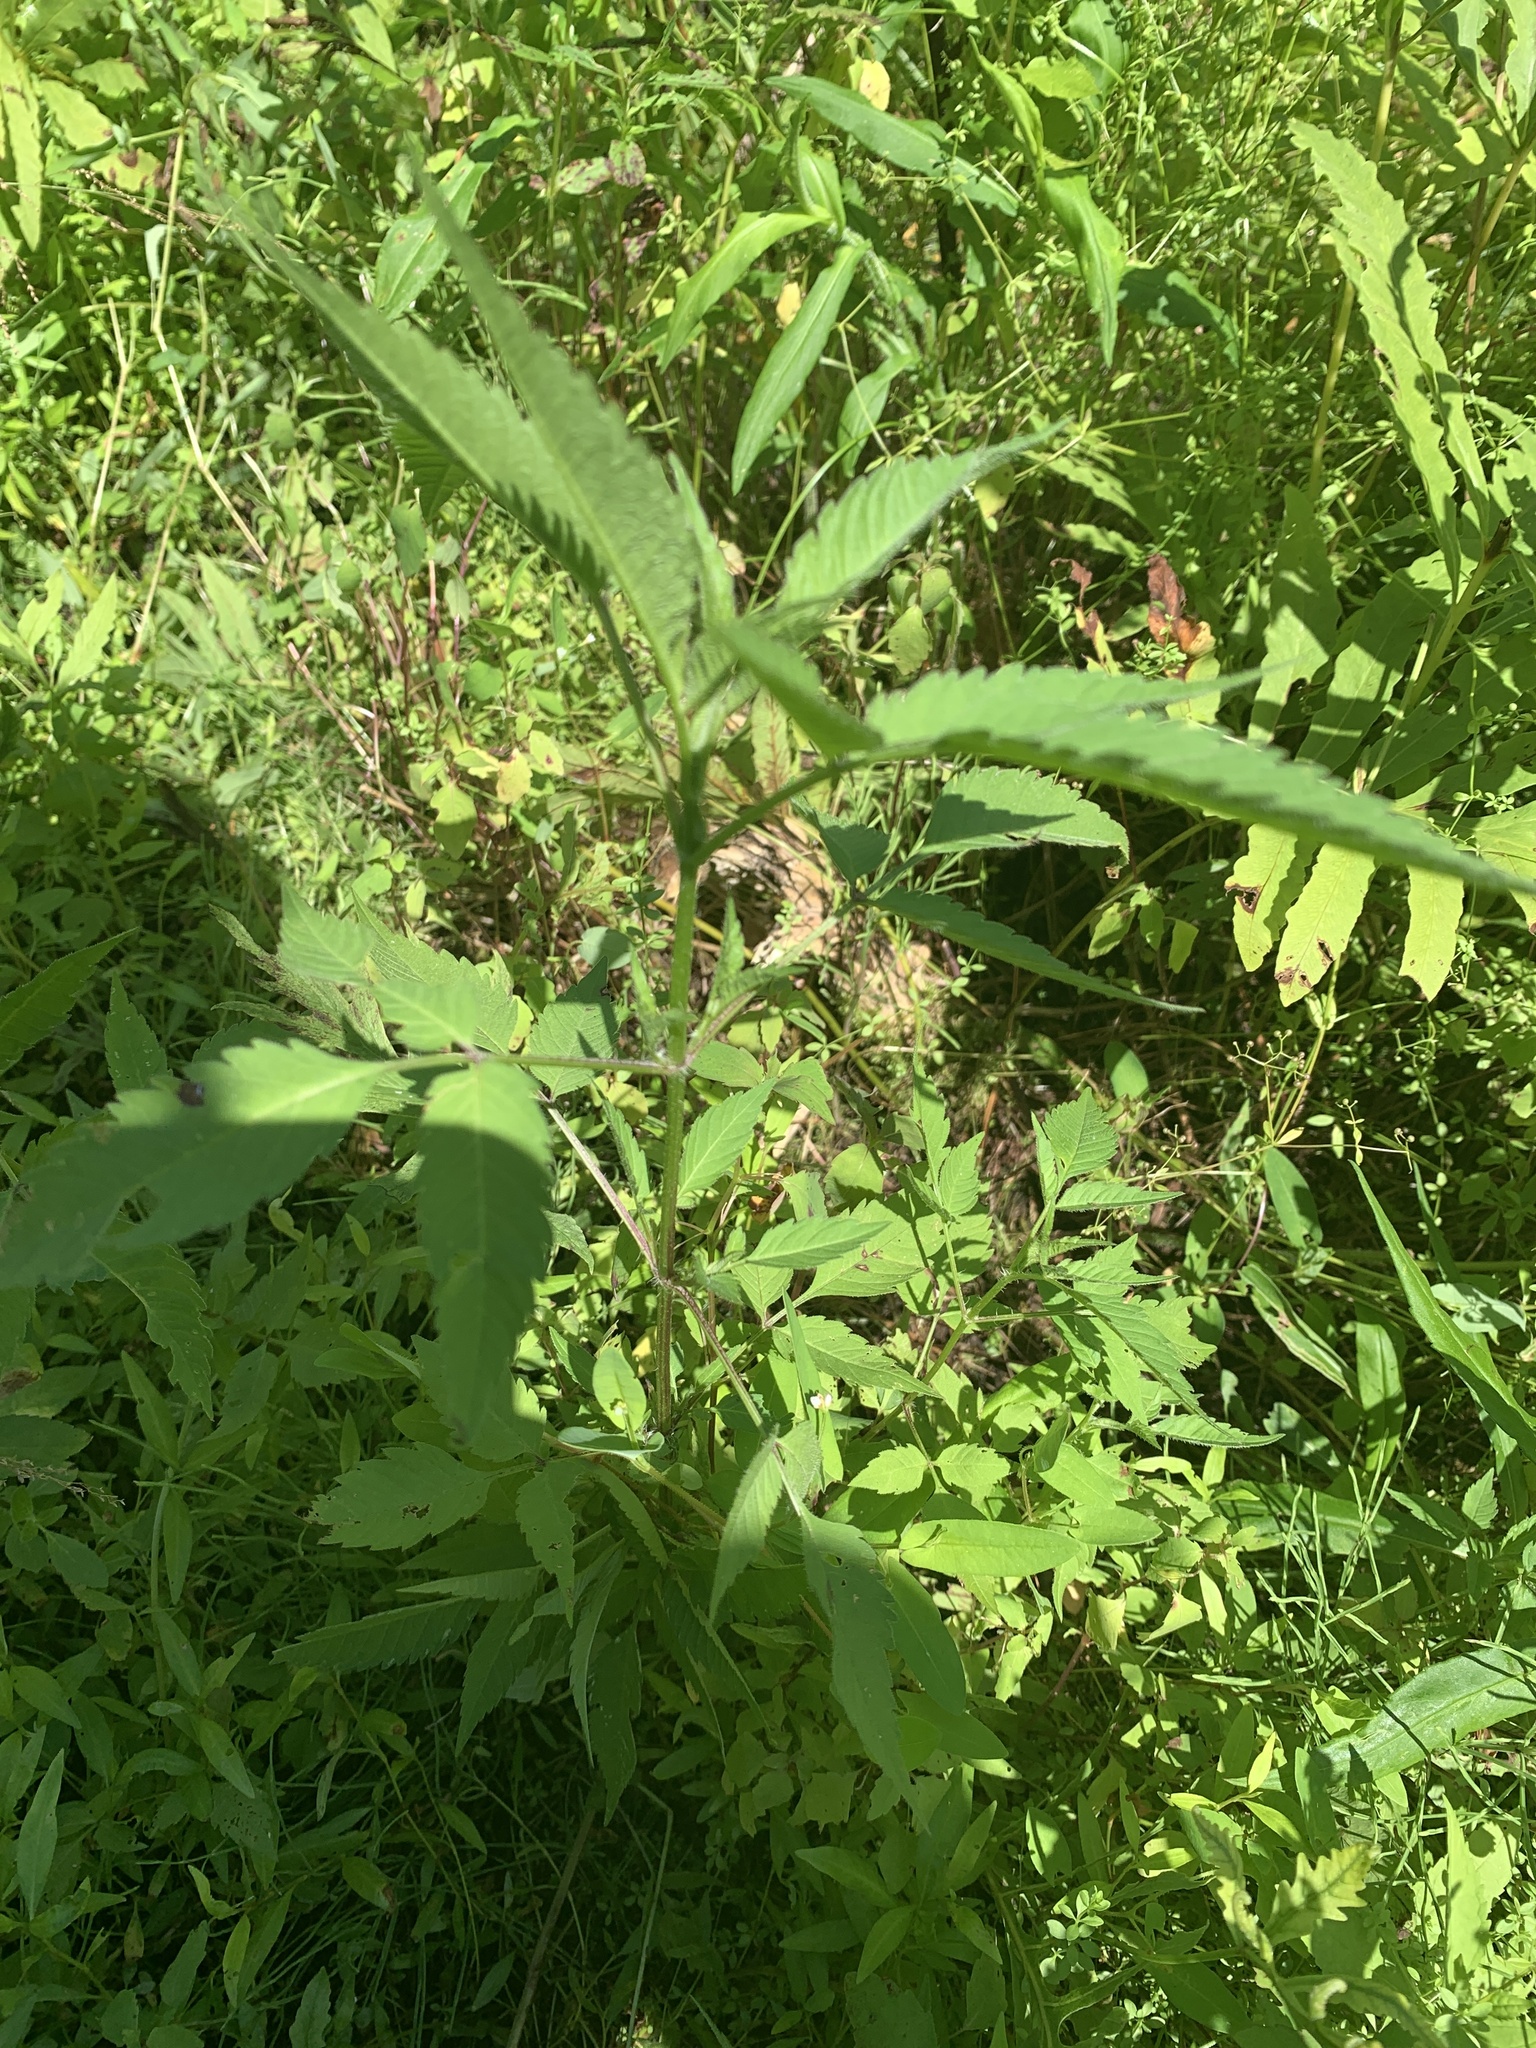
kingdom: Plantae
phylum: Tracheophyta
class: Magnoliopsida
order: Asterales
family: Asteraceae
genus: Bidens
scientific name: Bidens frondosa
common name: Beggarticks
